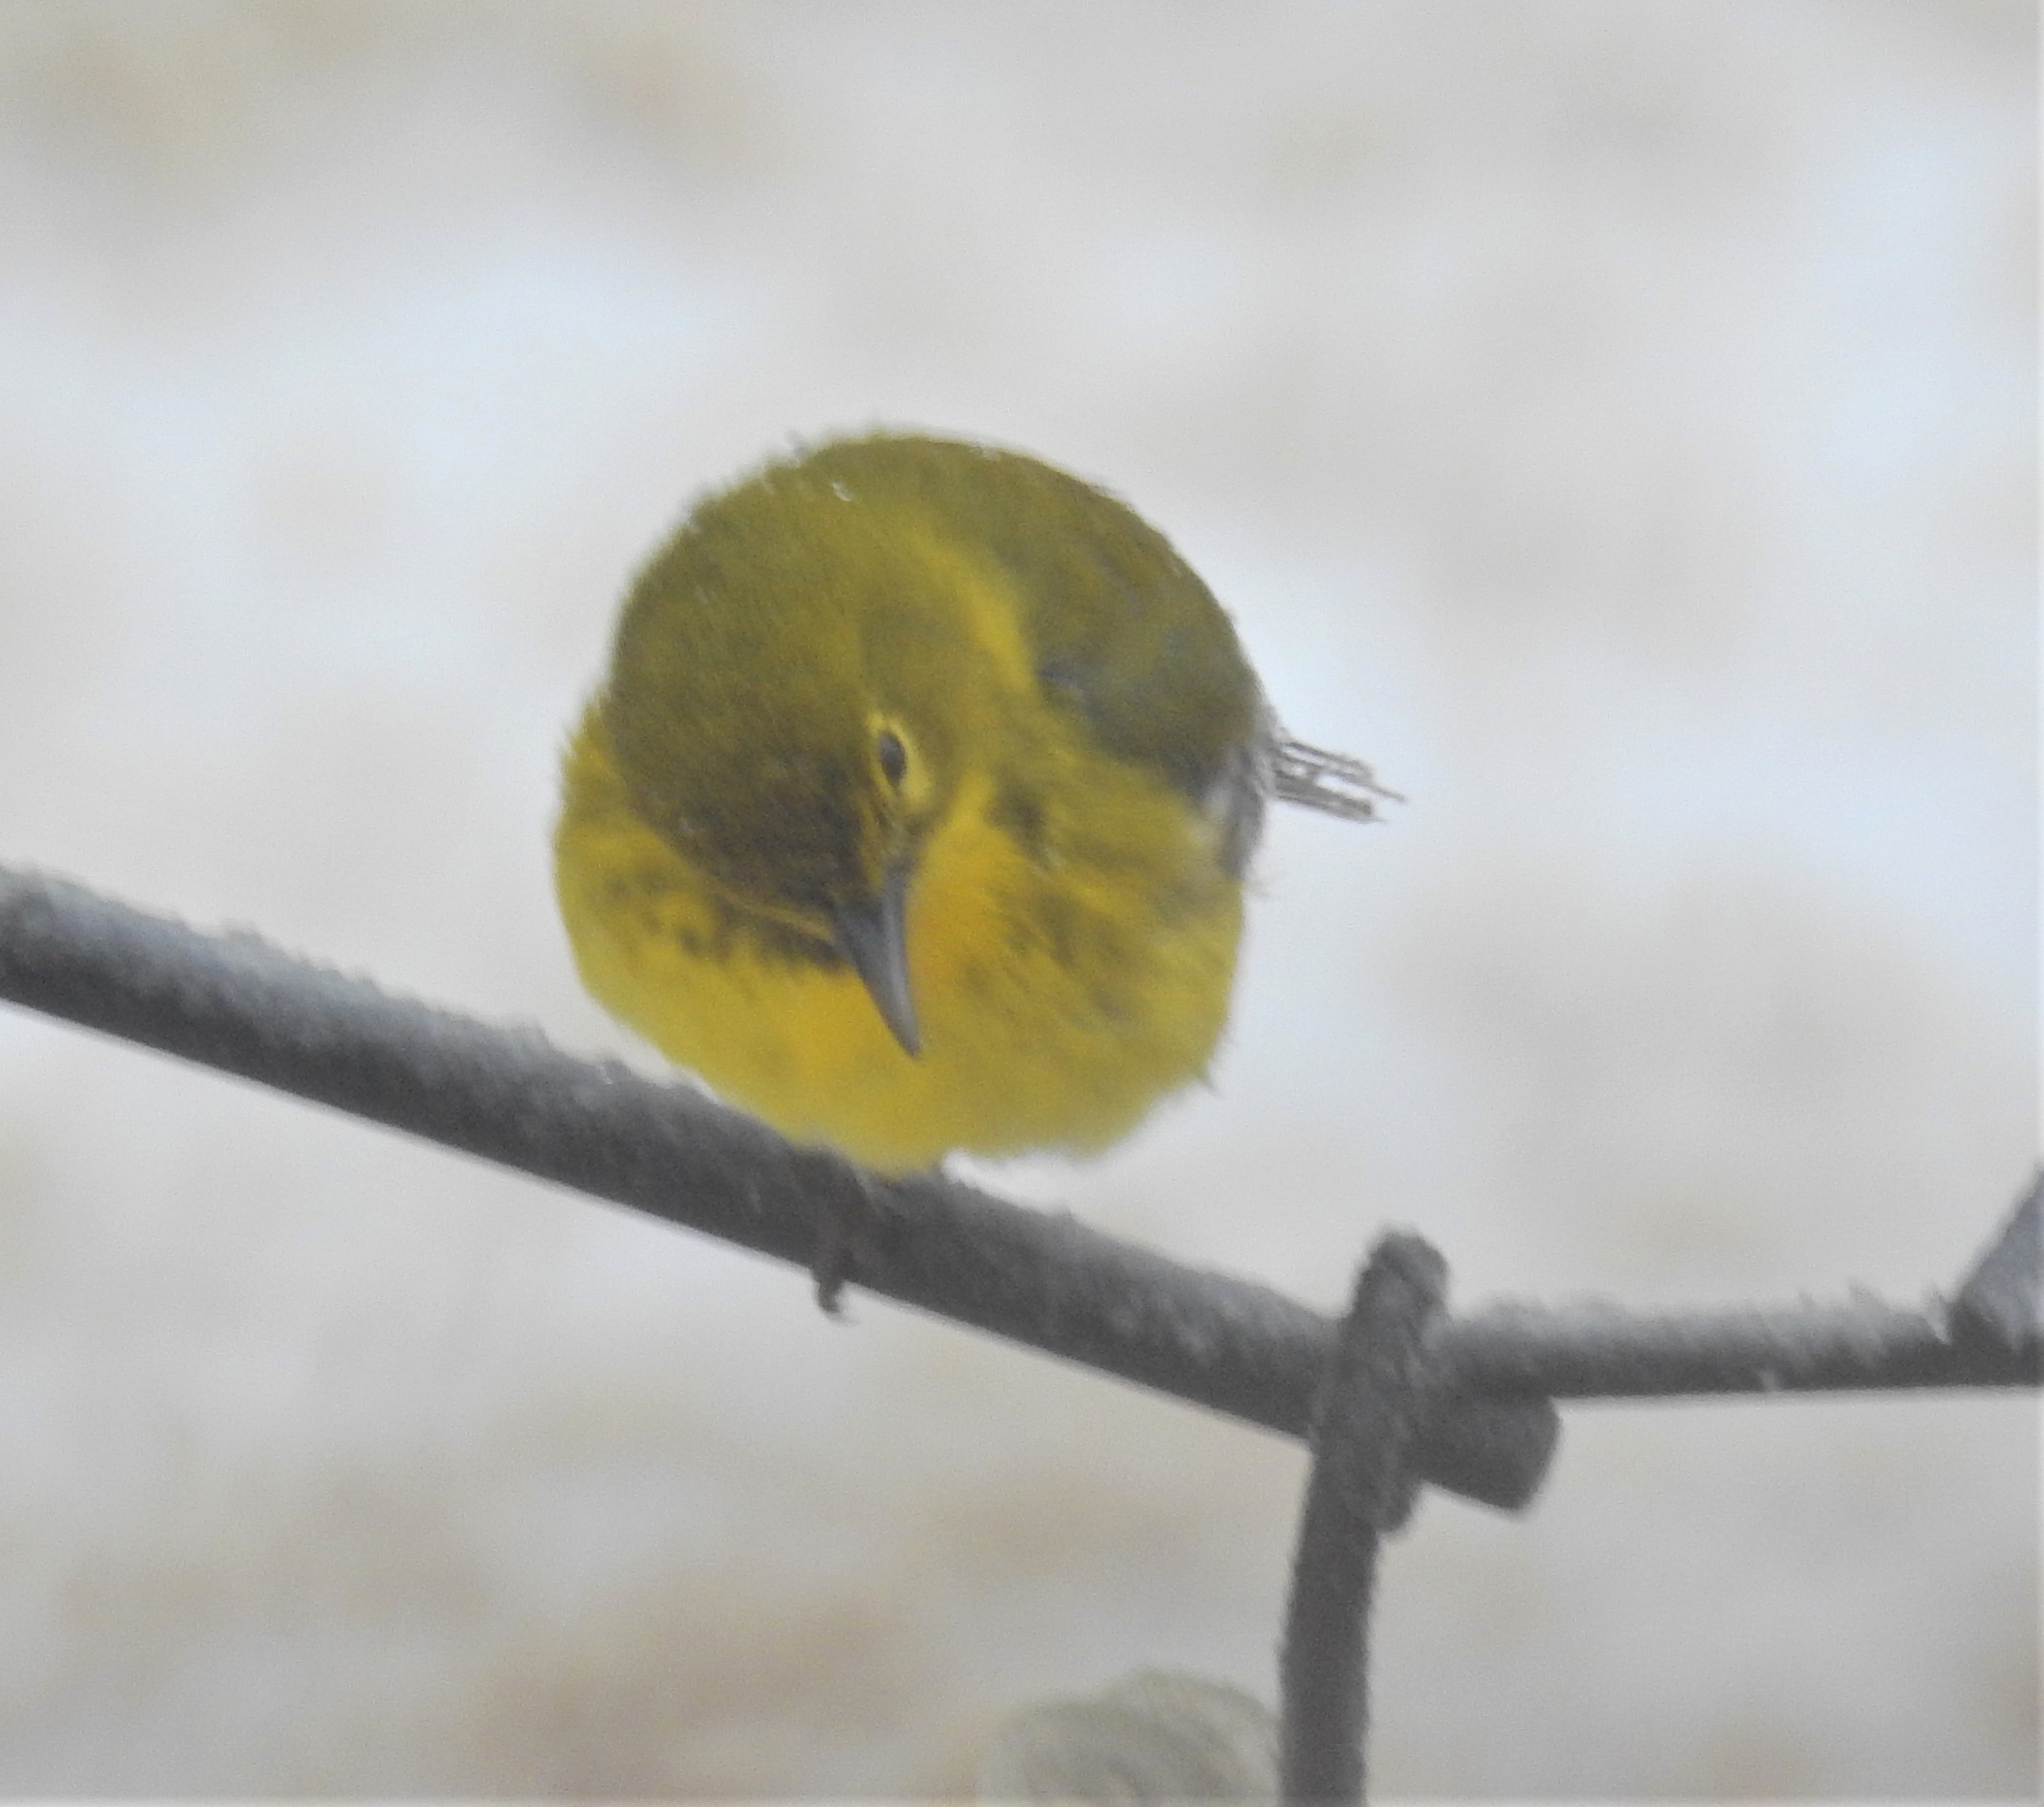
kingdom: Animalia
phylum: Chordata
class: Aves
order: Passeriformes
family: Parulidae
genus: Setophaga
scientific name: Setophaga pinus
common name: Pine warbler
